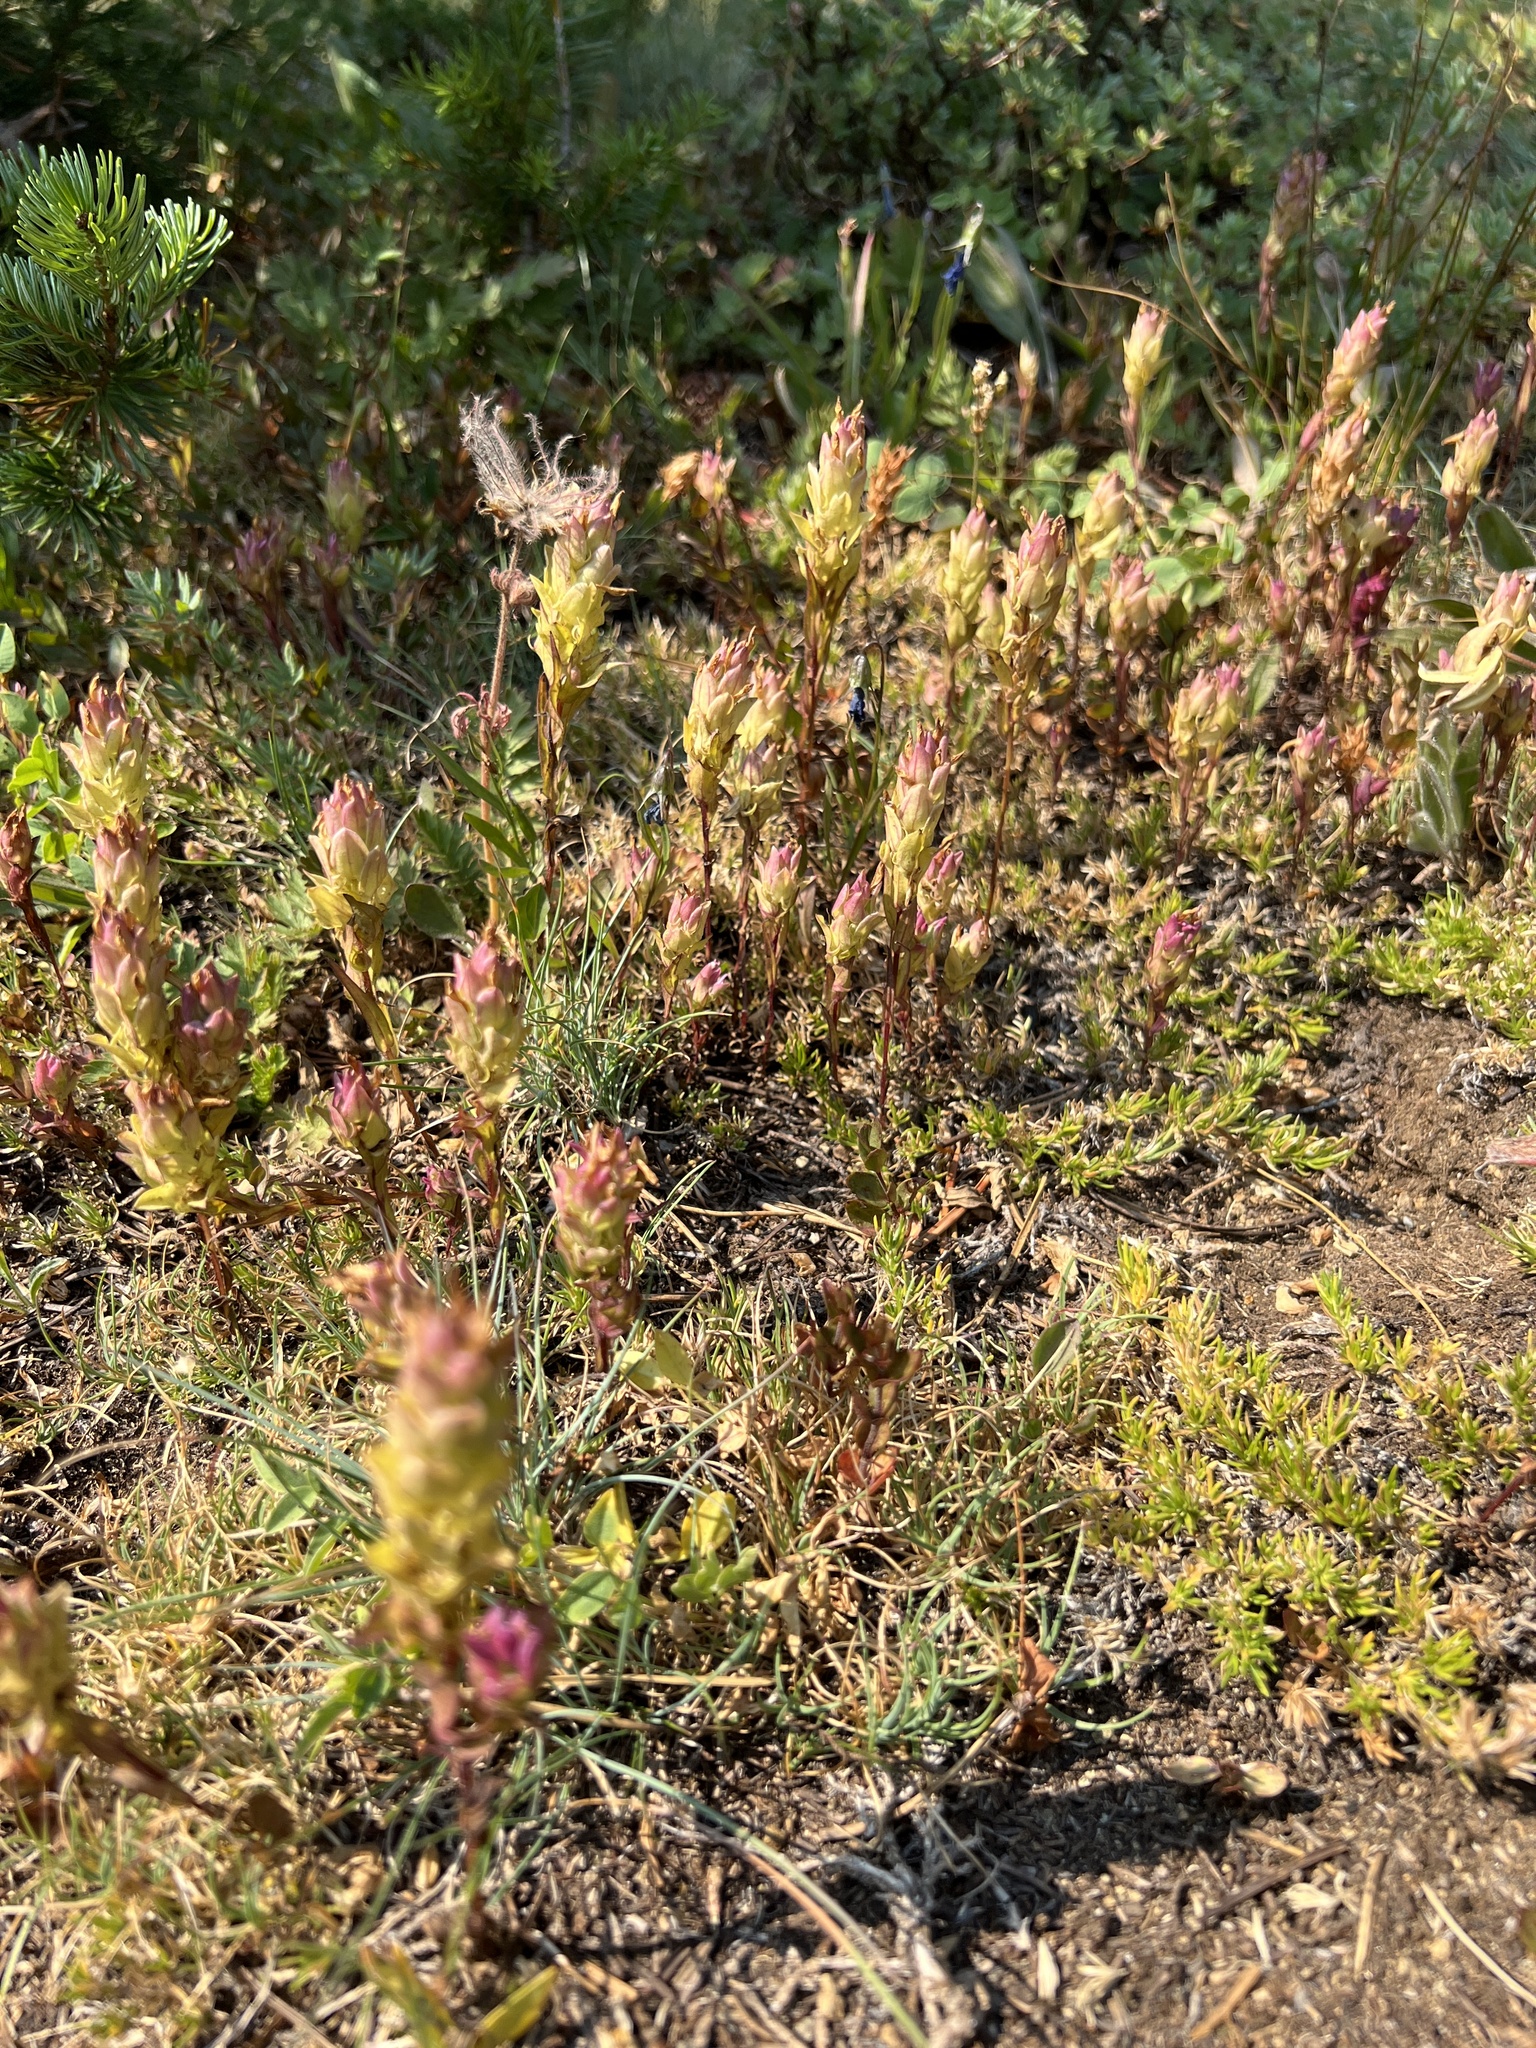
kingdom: Plantae
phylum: Tracheophyta
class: Magnoliopsida
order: Lamiales
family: Orobanchaceae
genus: Orthocarpus
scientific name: Orthocarpus imbricatus
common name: Mountain owl's-clover
